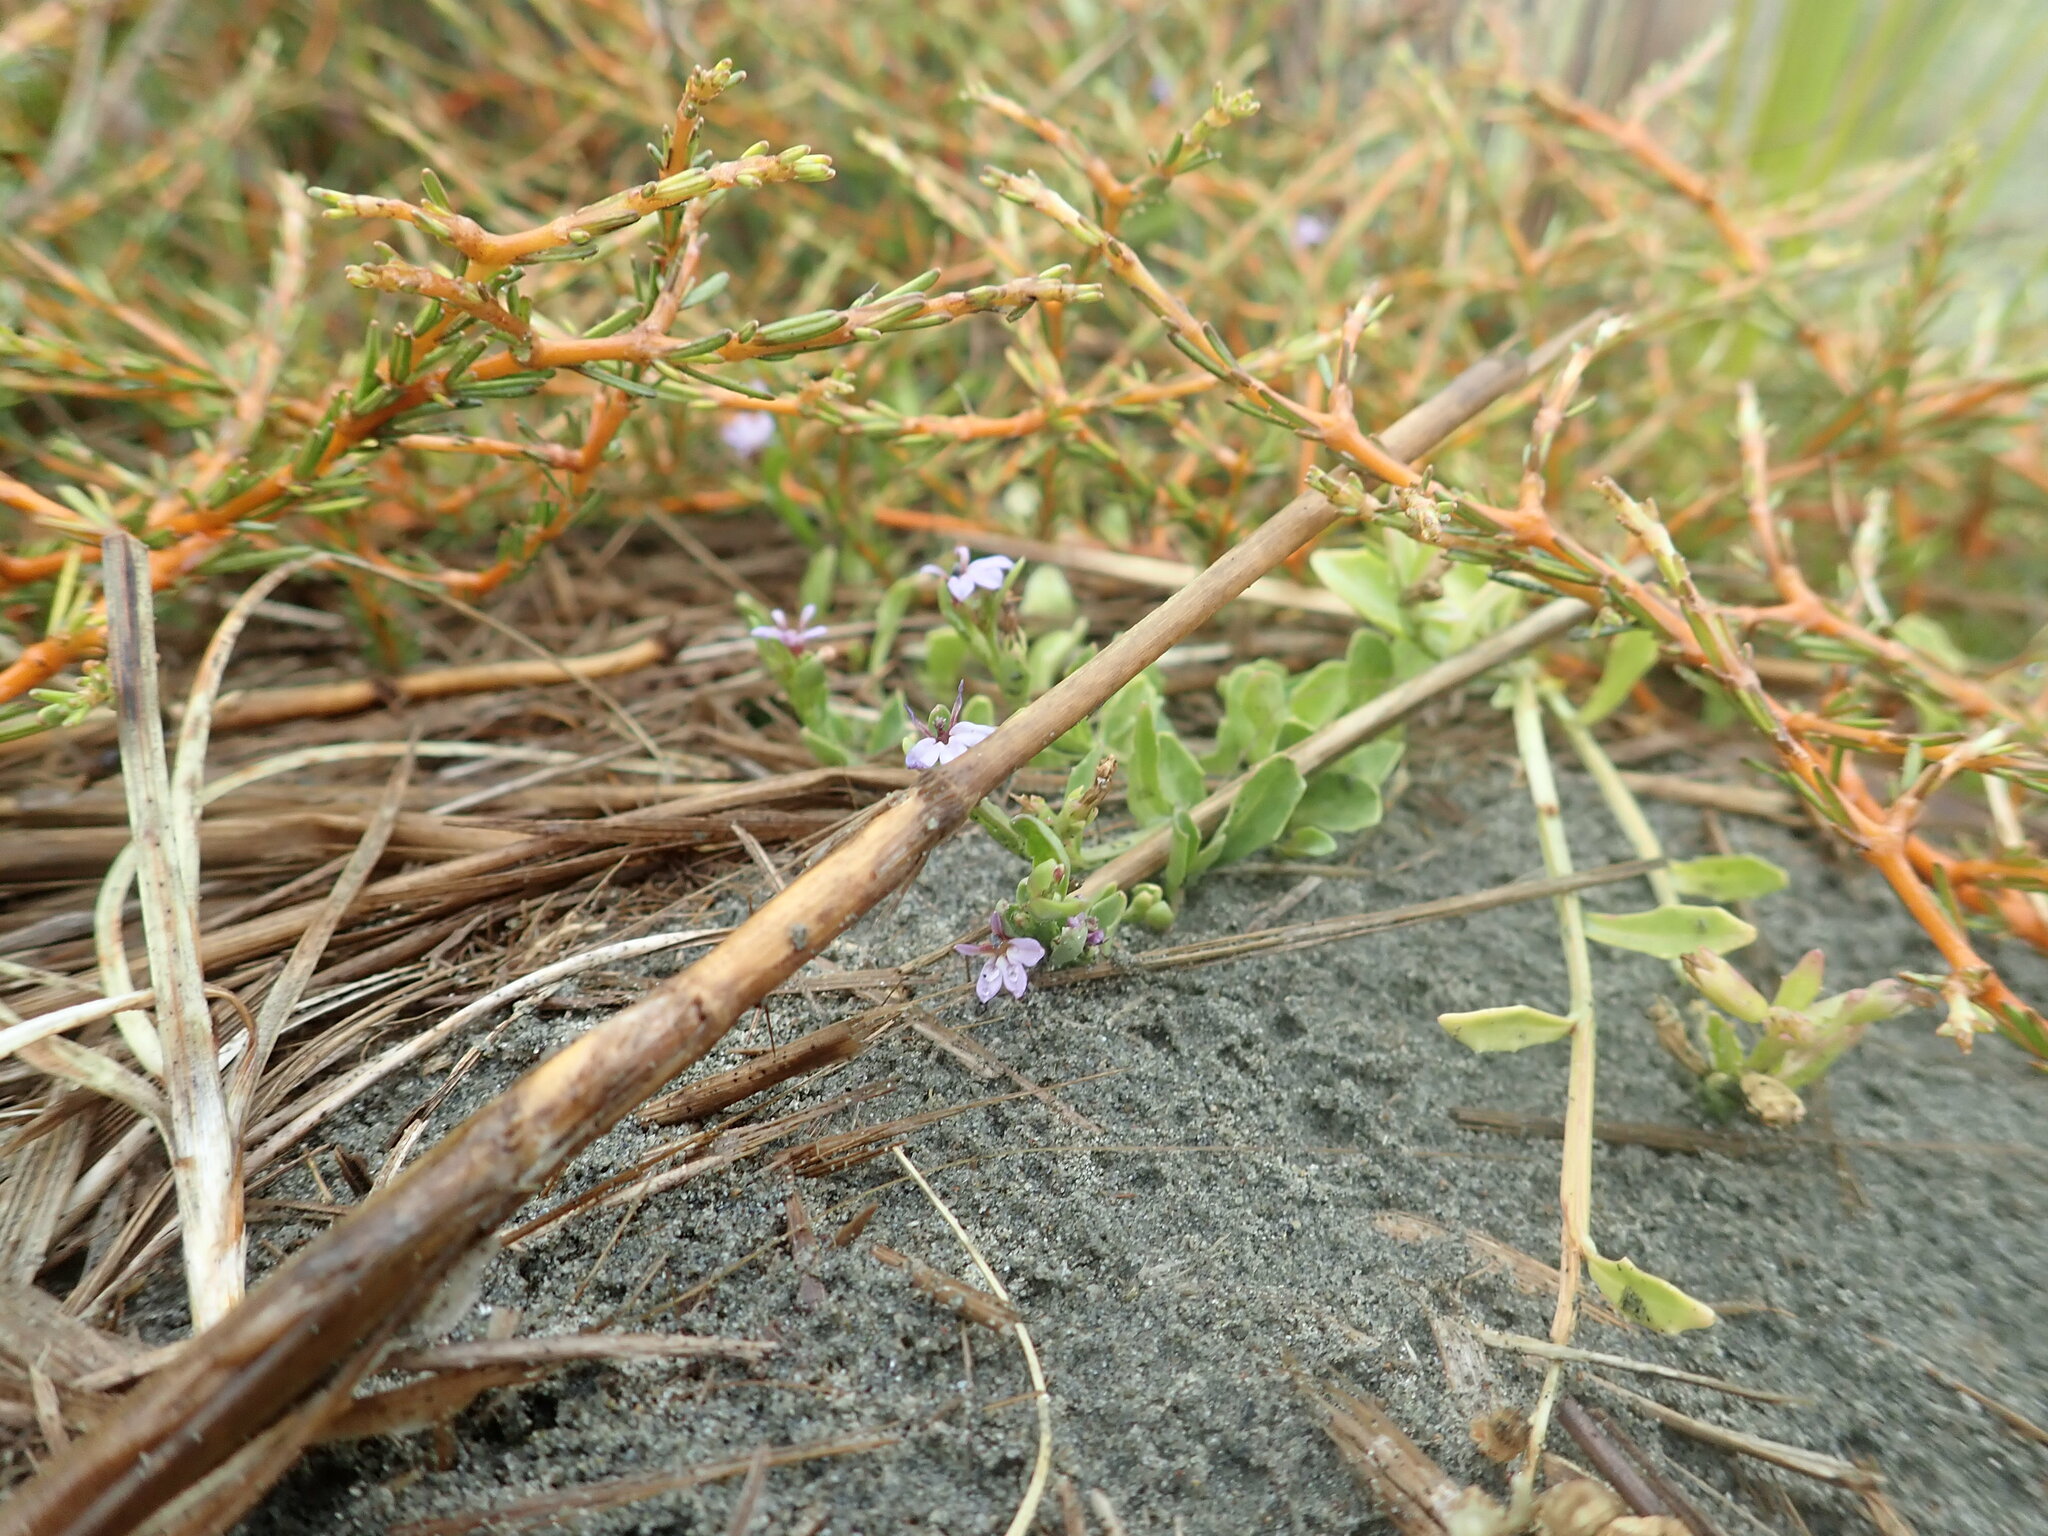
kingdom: Plantae
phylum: Tracheophyta
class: Magnoliopsida
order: Asterales
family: Campanulaceae
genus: Lobelia
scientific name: Lobelia anceps
